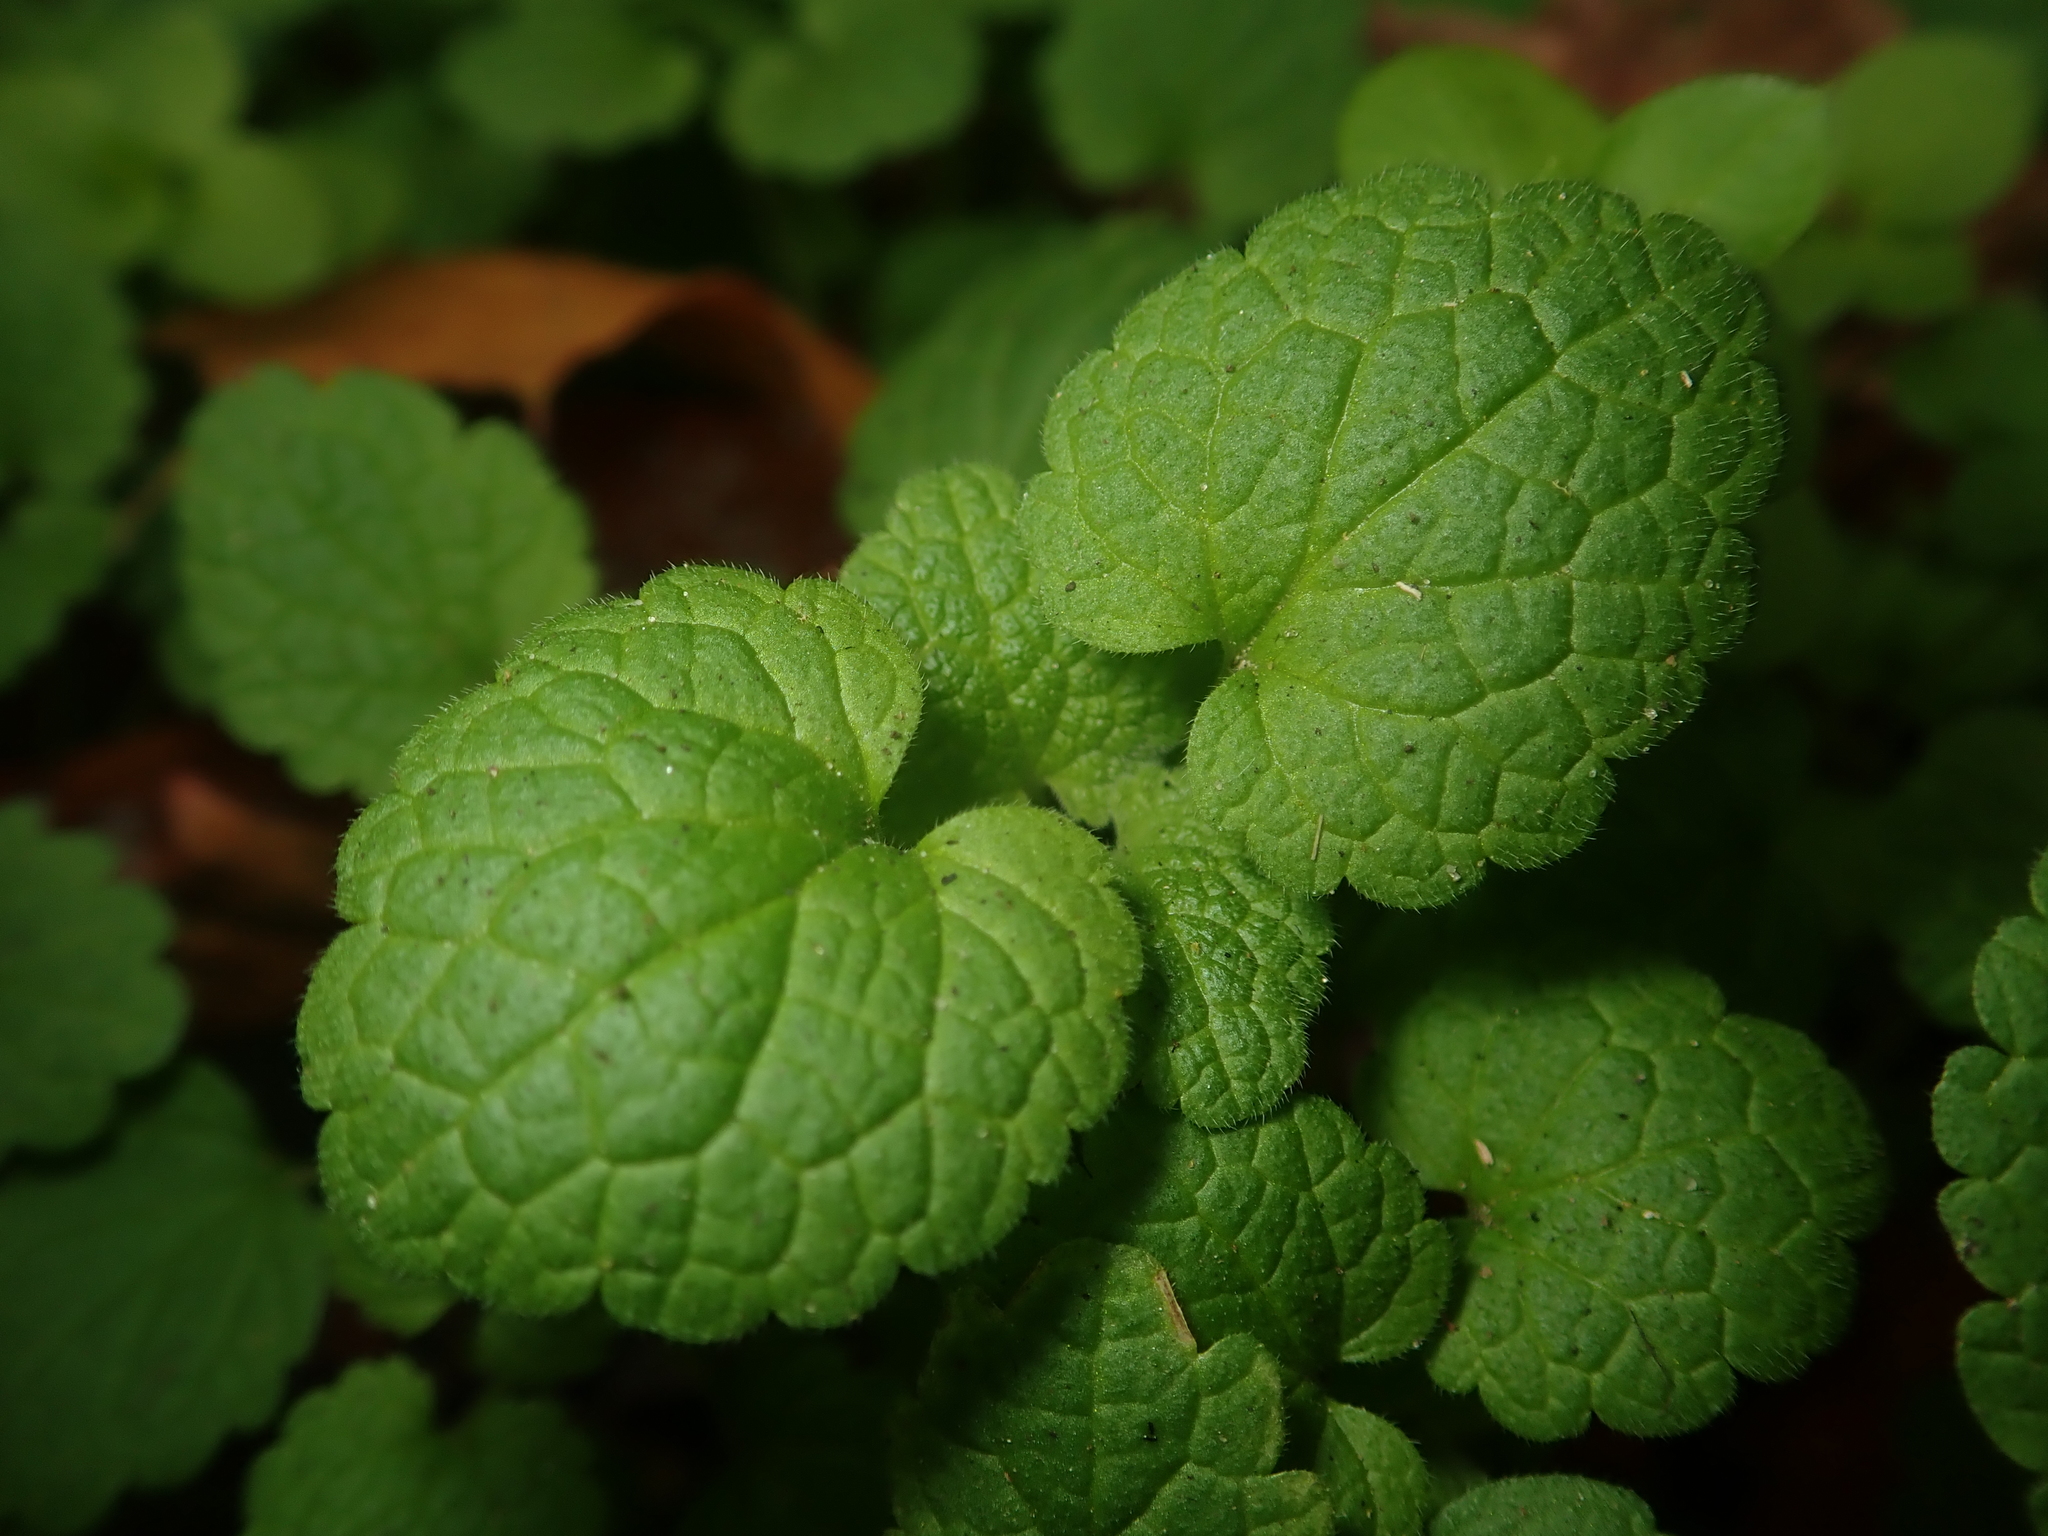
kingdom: Plantae
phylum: Tracheophyta
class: Magnoliopsida
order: Lamiales
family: Lamiaceae
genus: Lamium
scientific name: Lamium purpureum
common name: Red dead-nettle
